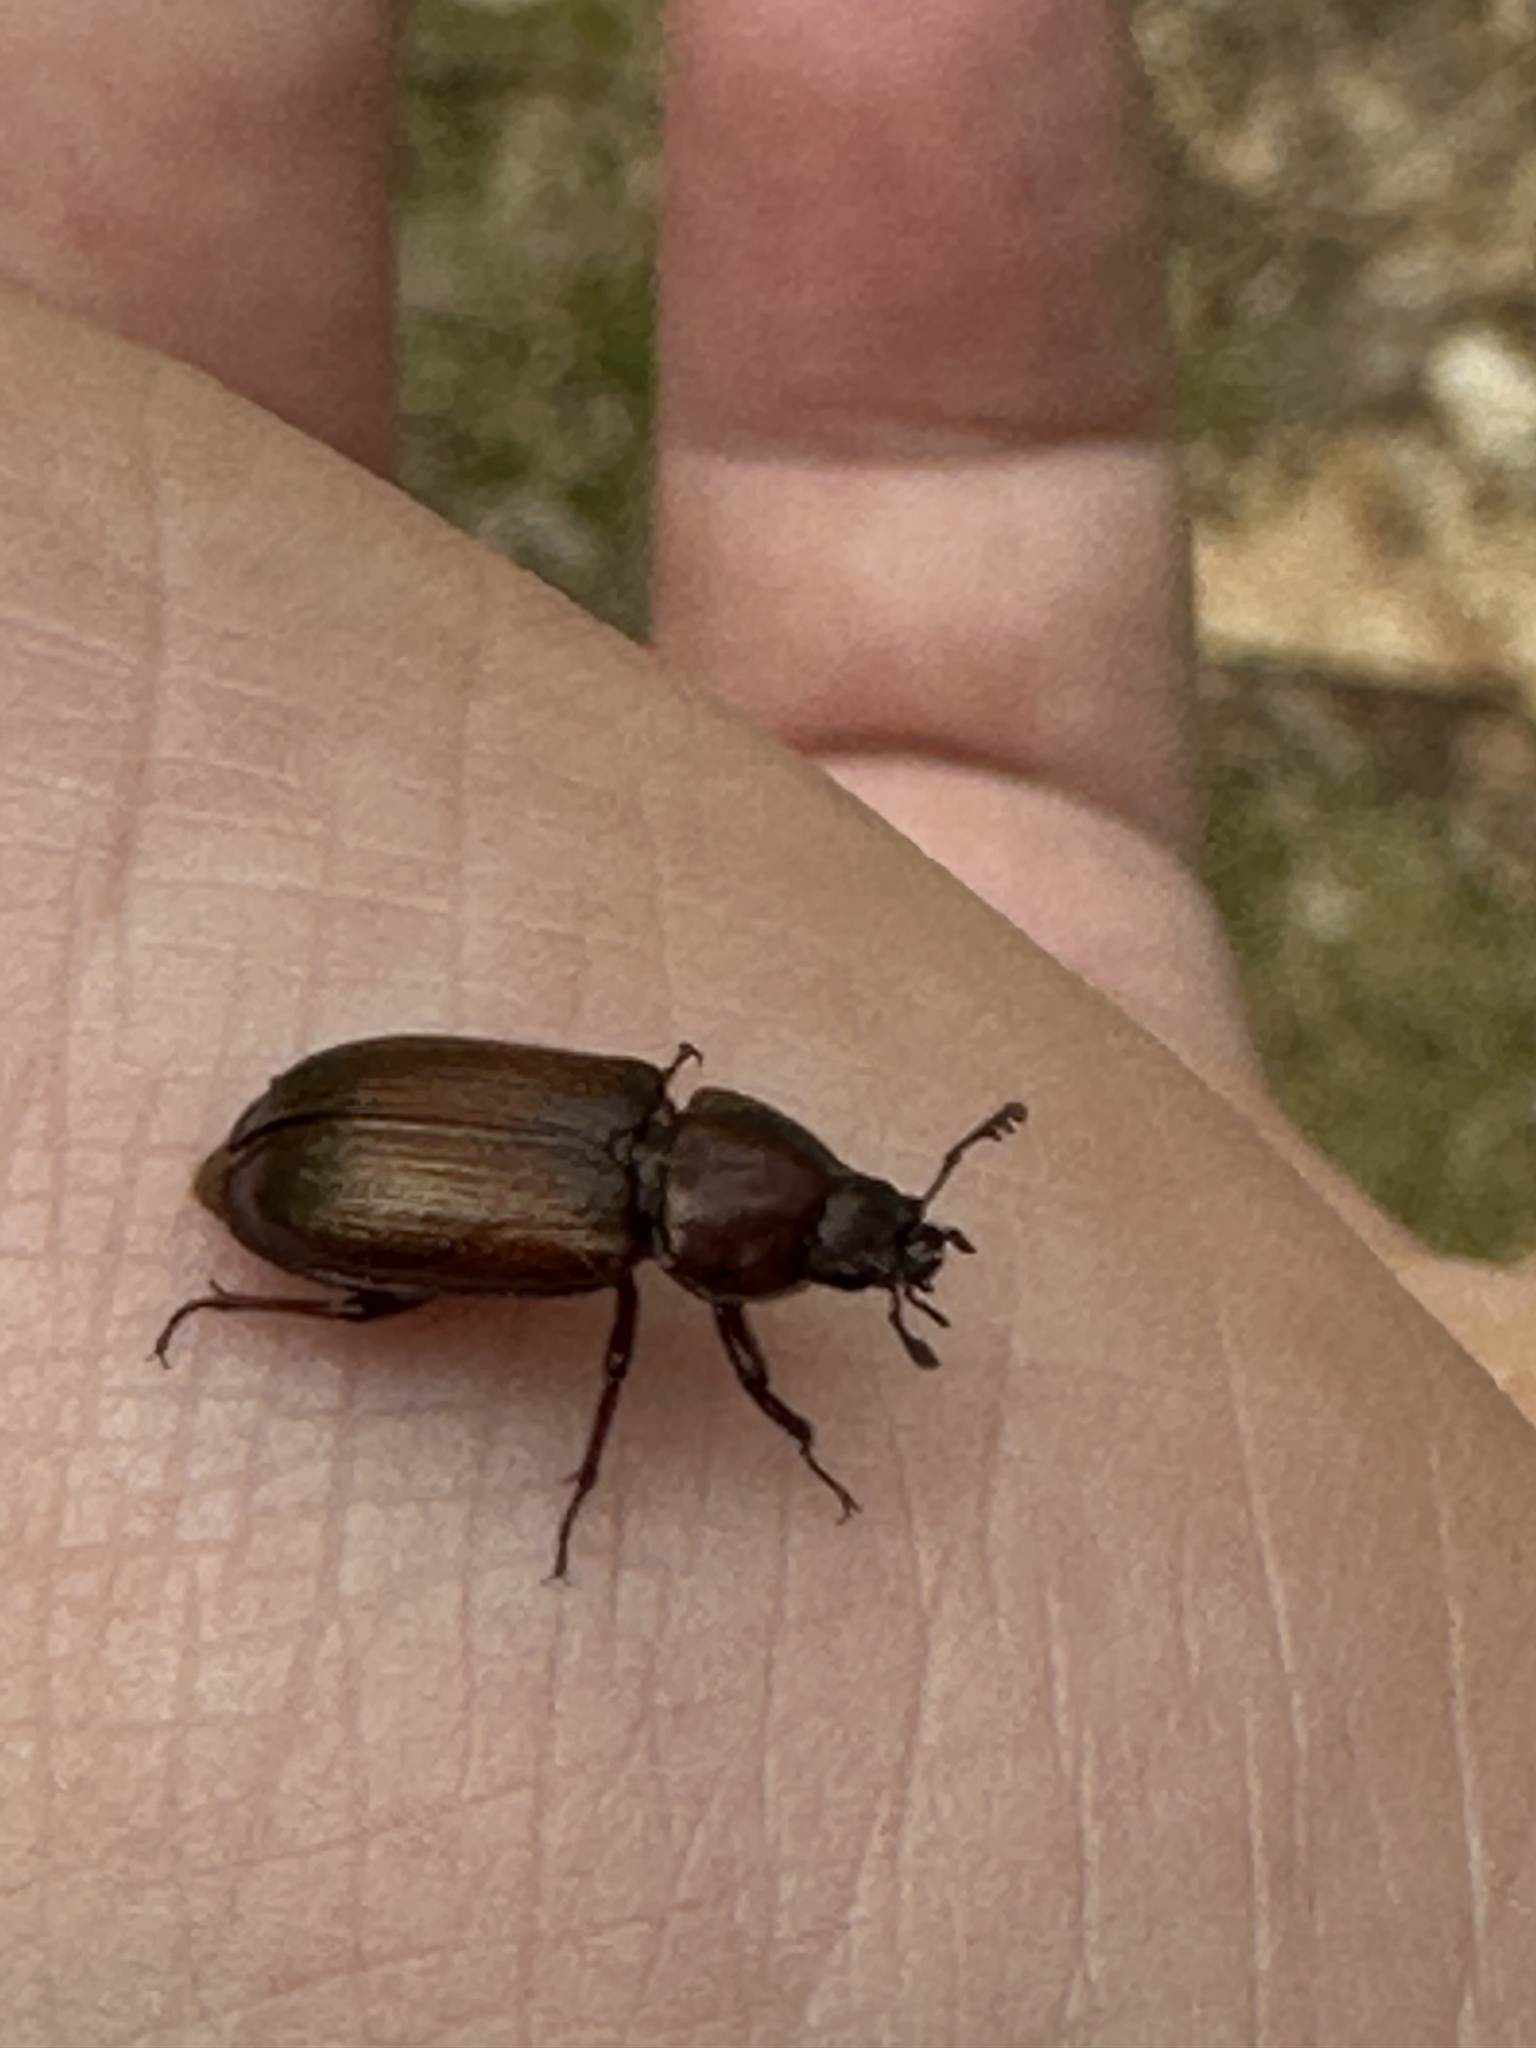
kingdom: Animalia
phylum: Arthropoda
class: Insecta
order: Coleoptera
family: Lucanidae
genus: Platycerus
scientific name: Platycerus quercus
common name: Oak stag beetle
